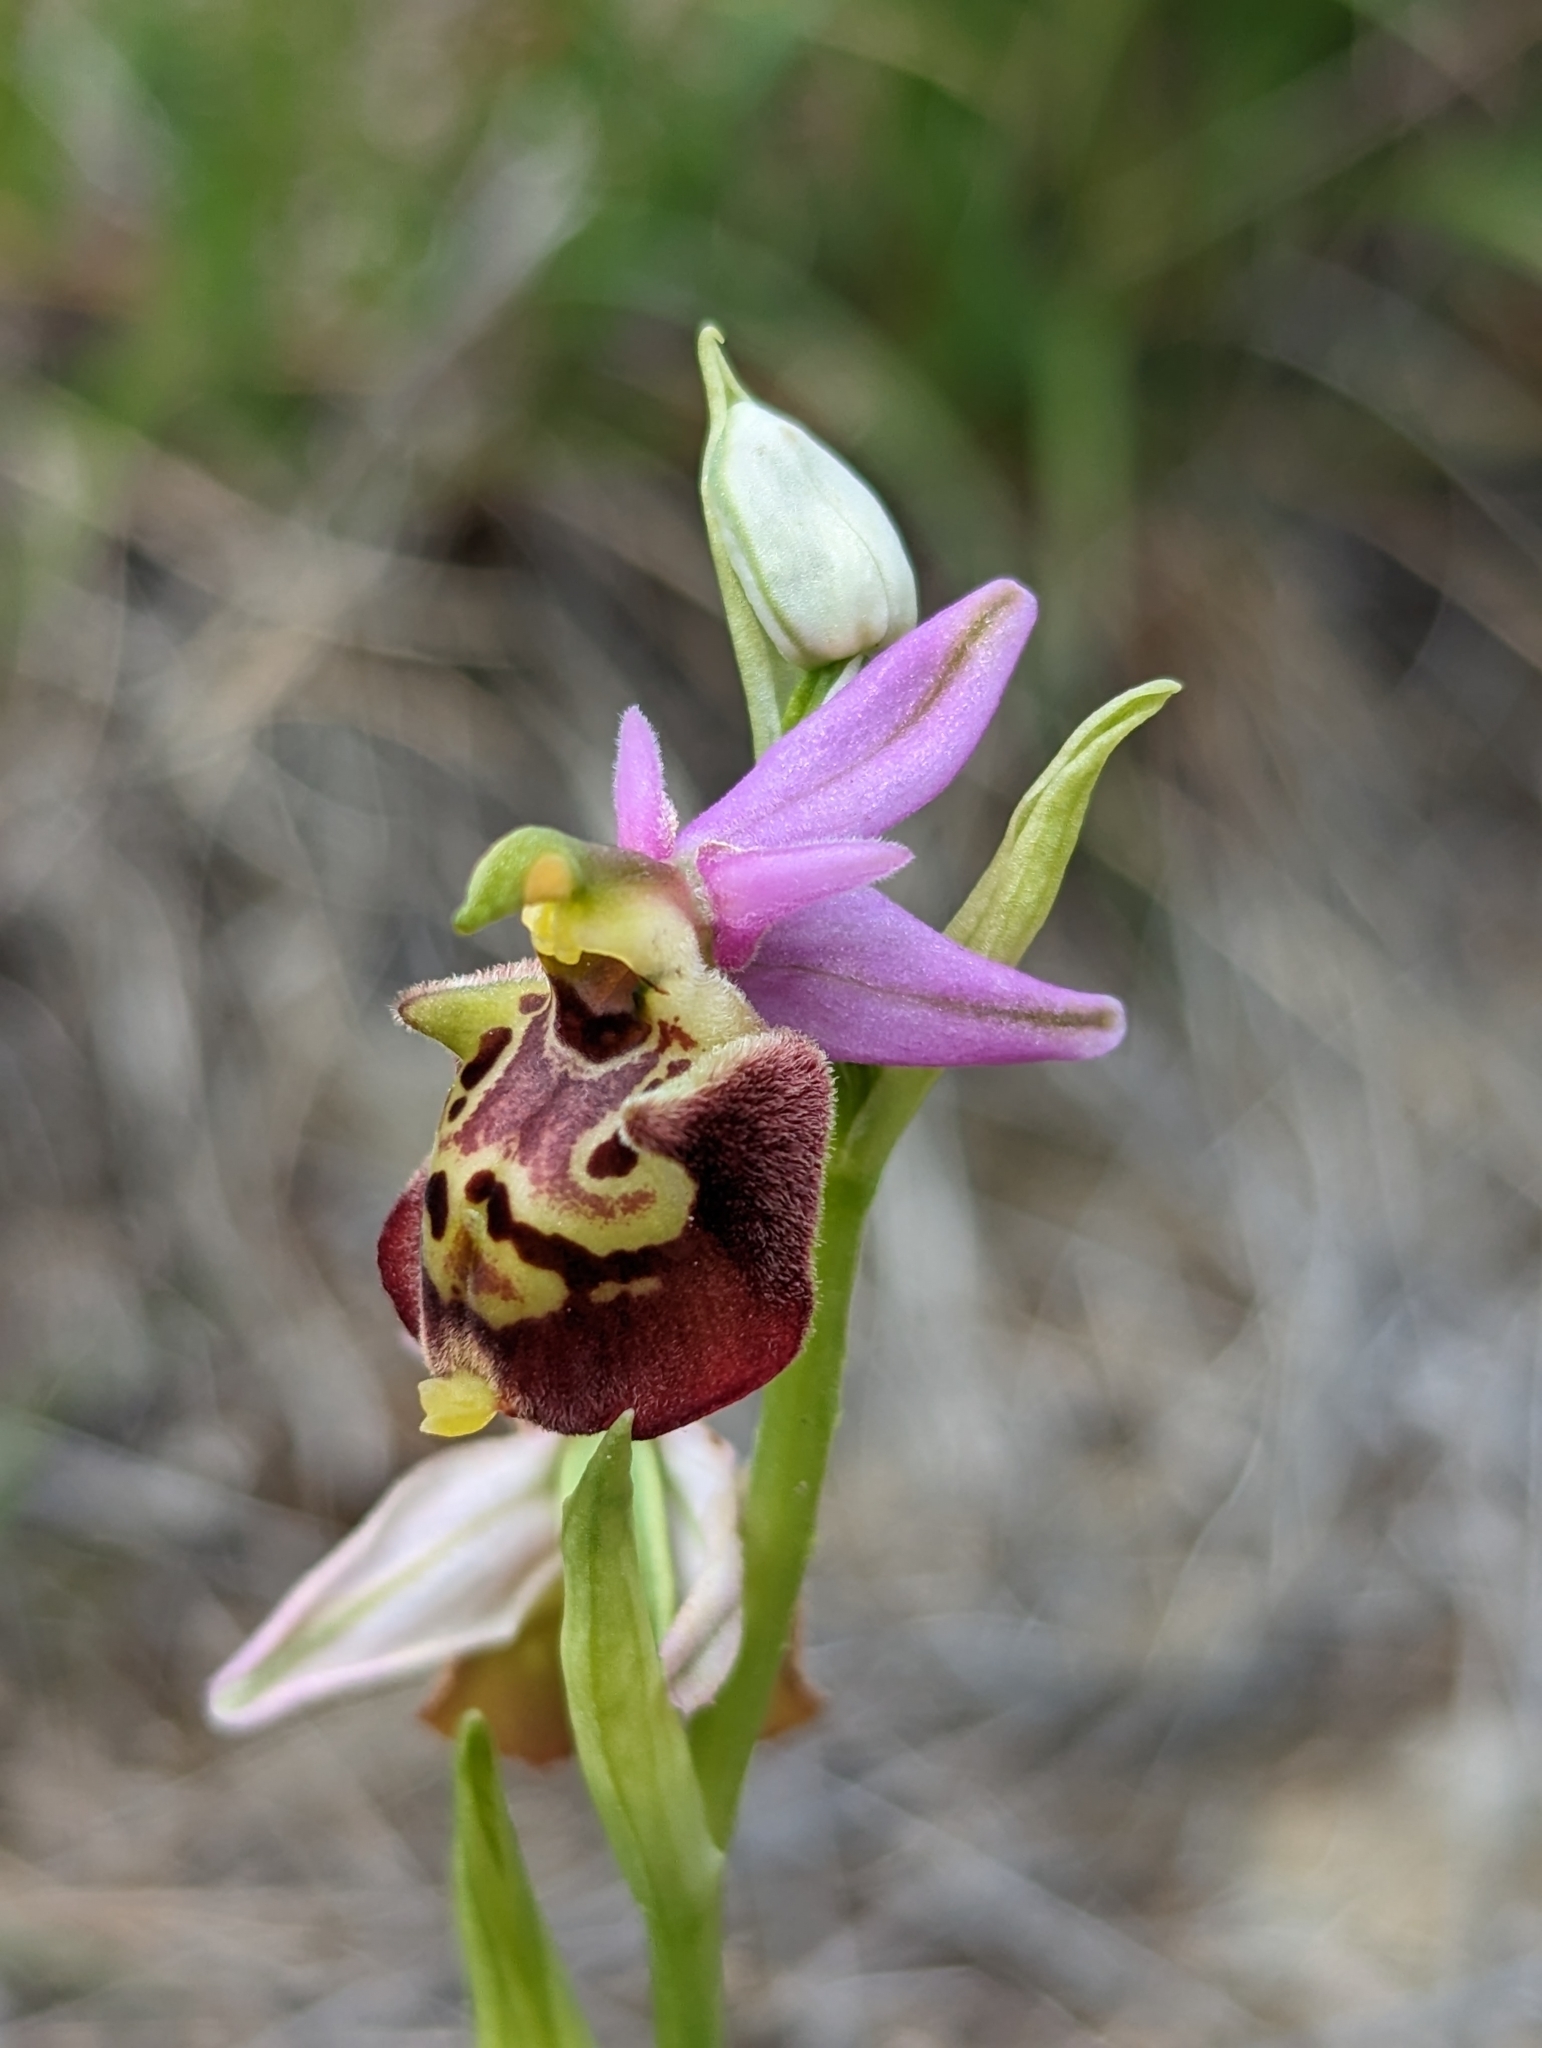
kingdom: Plantae
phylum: Tracheophyta
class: Liliopsida
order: Asparagales
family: Orchidaceae
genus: Ophrys
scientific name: Ophrys holosericea
